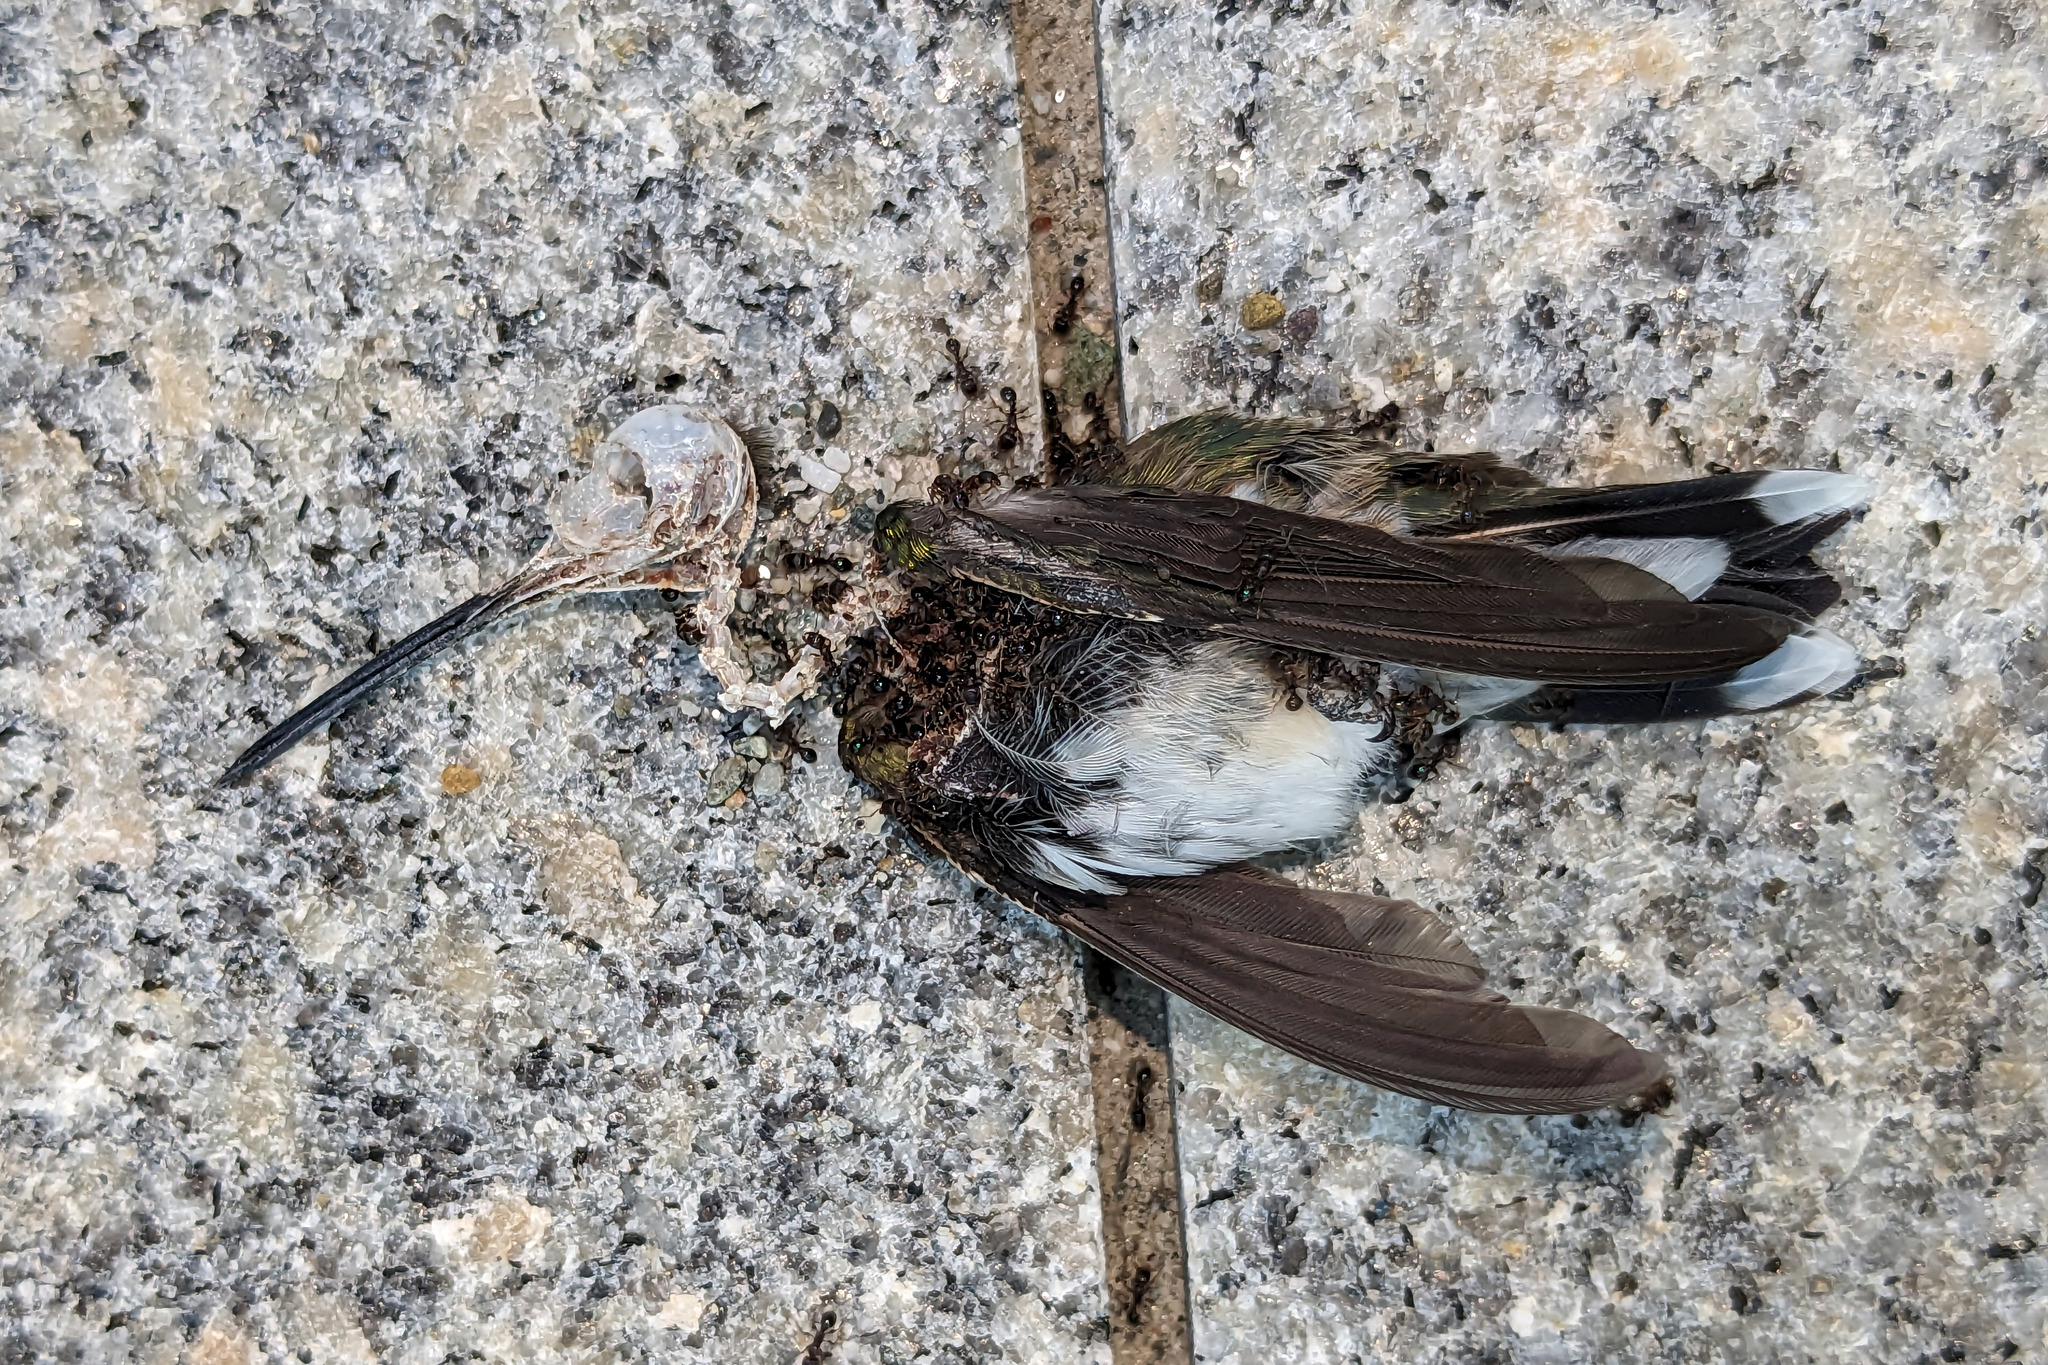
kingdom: Animalia
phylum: Chordata
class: Aves
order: Apodiformes
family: Trochilidae
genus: Archilochus
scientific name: Archilochus colubris
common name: Ruby-throated hummingbird
